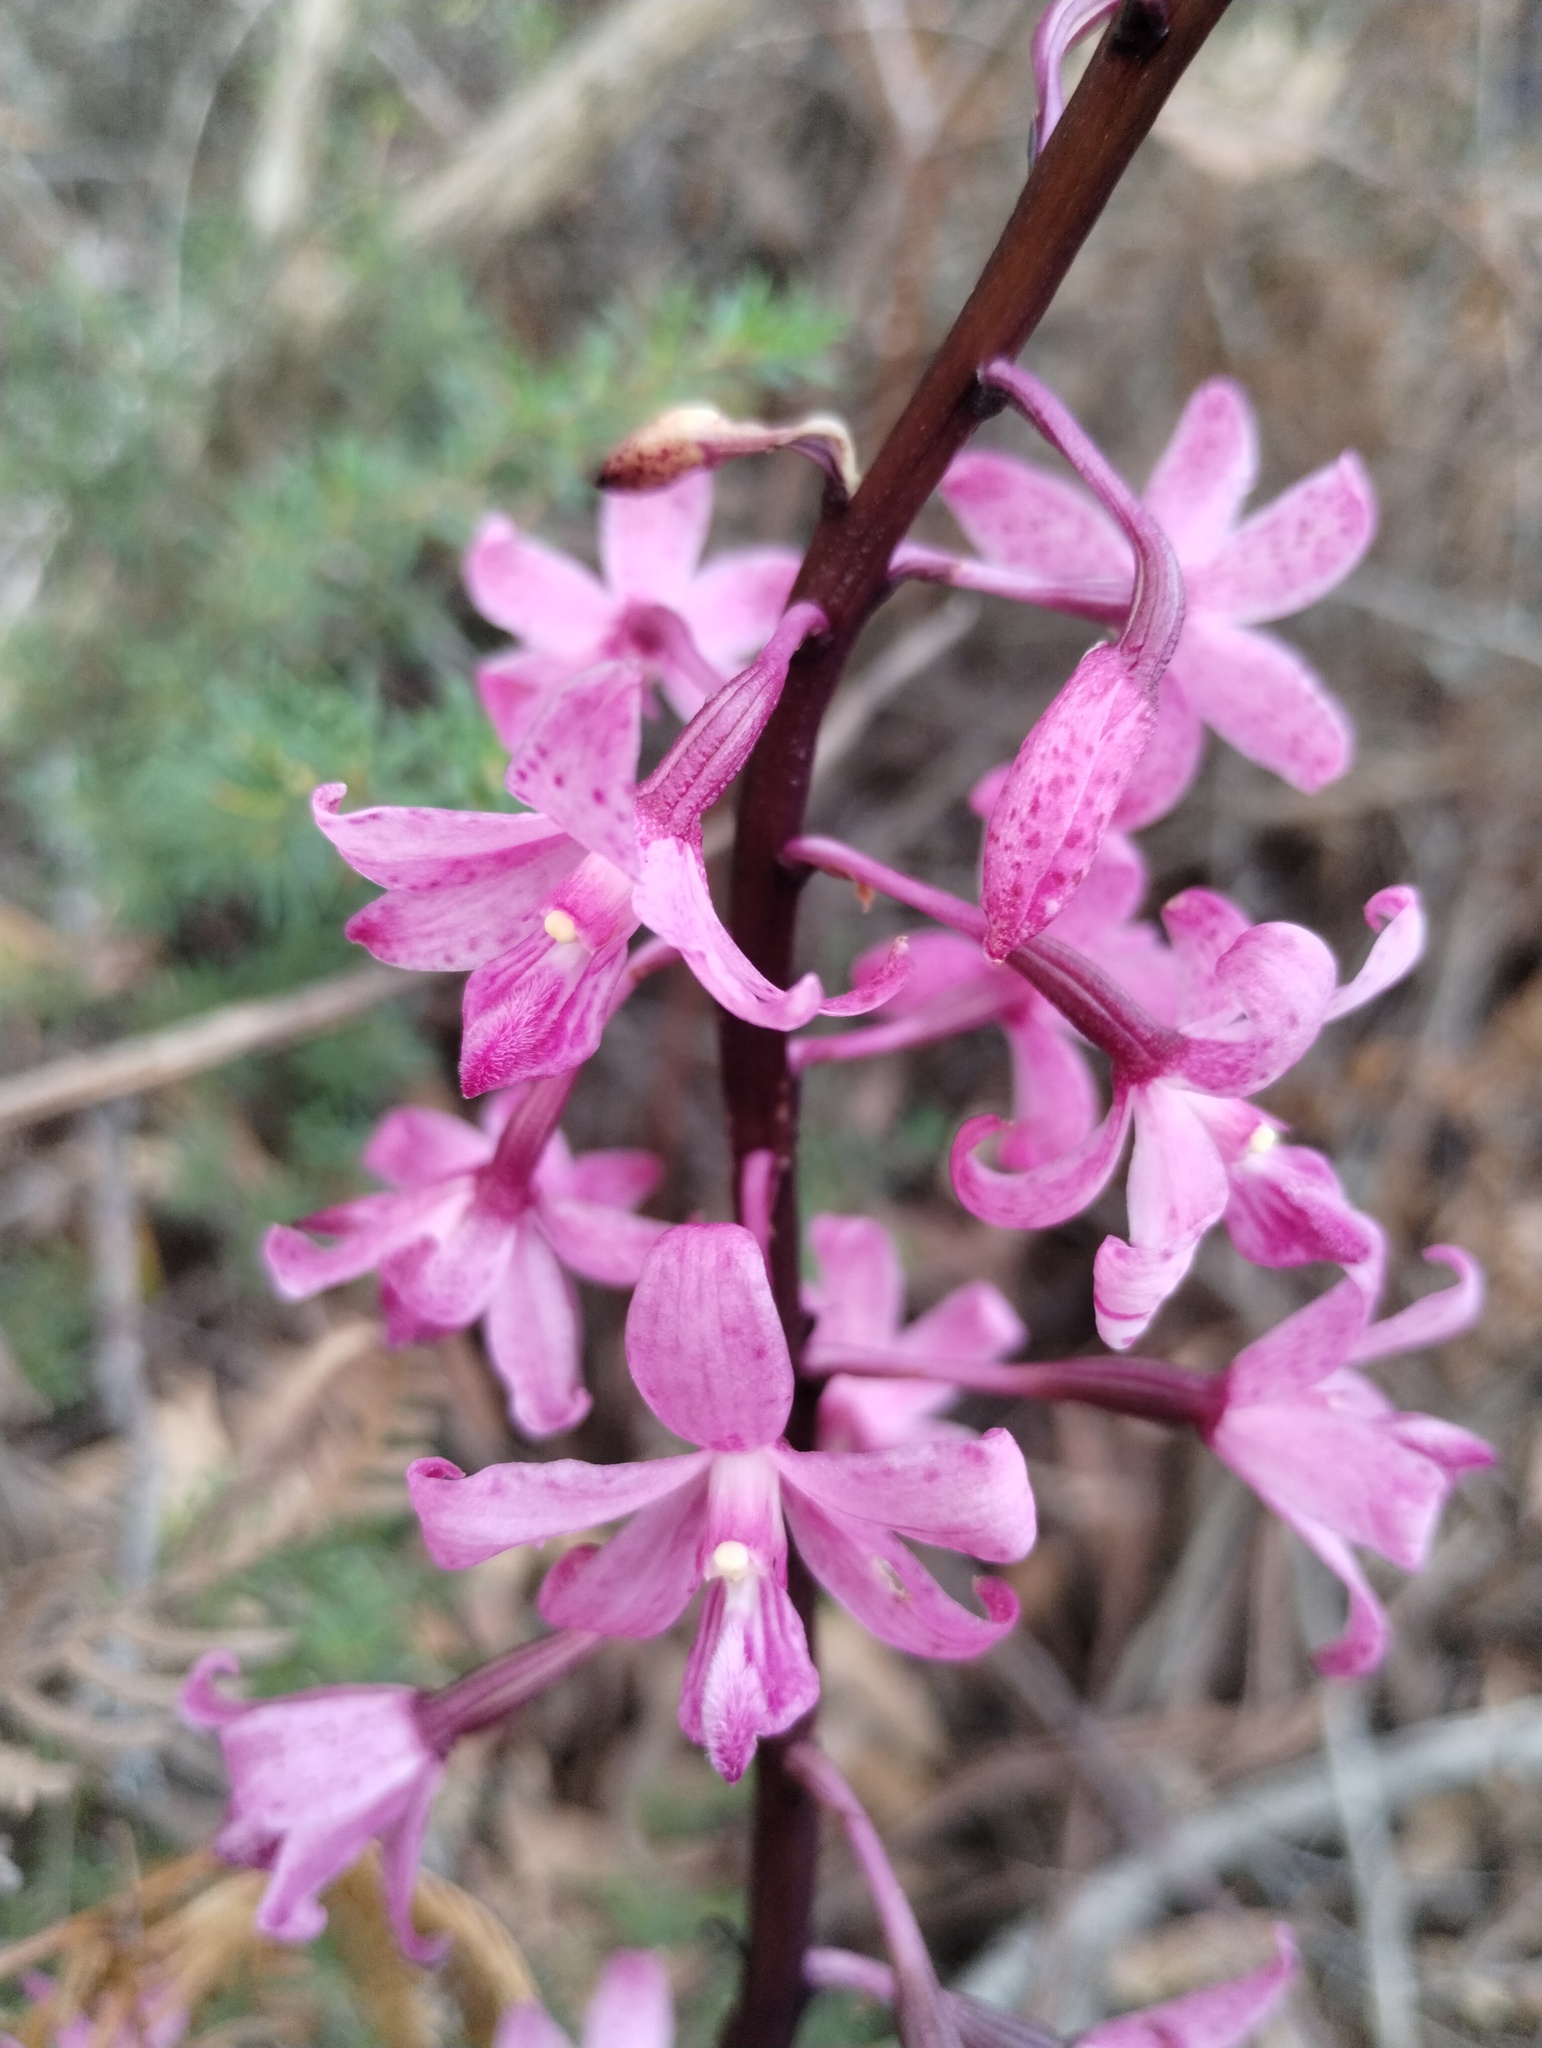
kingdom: Plantae
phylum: Tracheophyta
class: Liliopsida
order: Asparagales
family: Orchidaceae
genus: Dipodium
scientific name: Dipodium roseum
